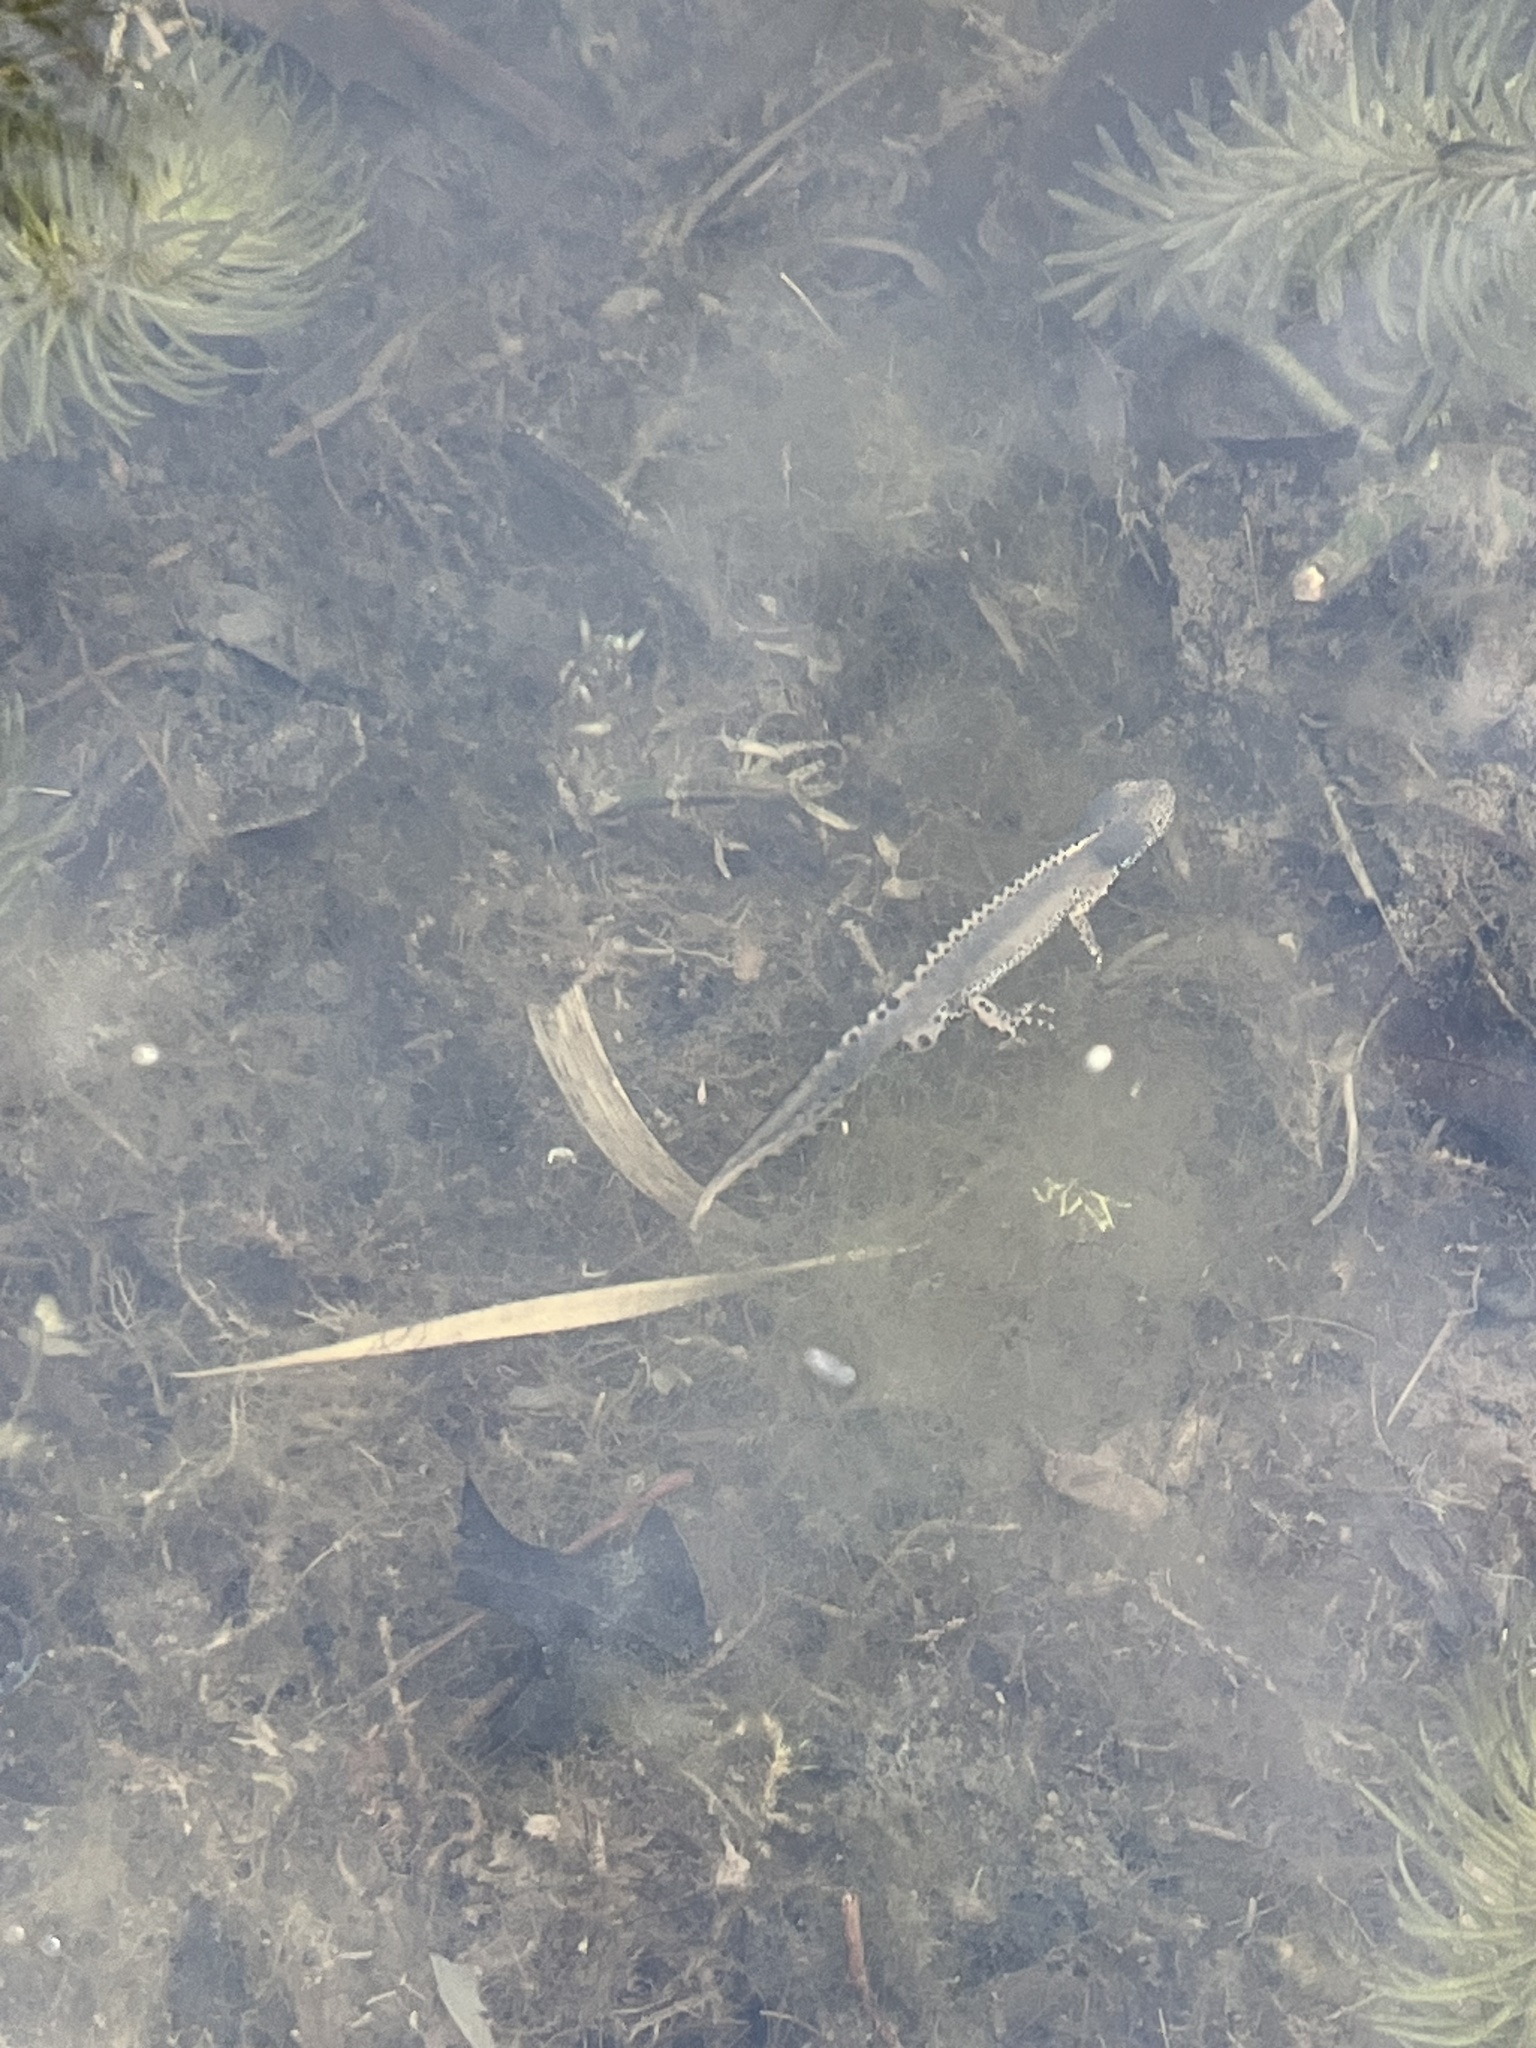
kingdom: Animalia
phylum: Chordata
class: Amphibia
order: Caudata
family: Salamandridae
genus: Ichthyosaura
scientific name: Ichthyosaura alpestris
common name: Alpine newt
